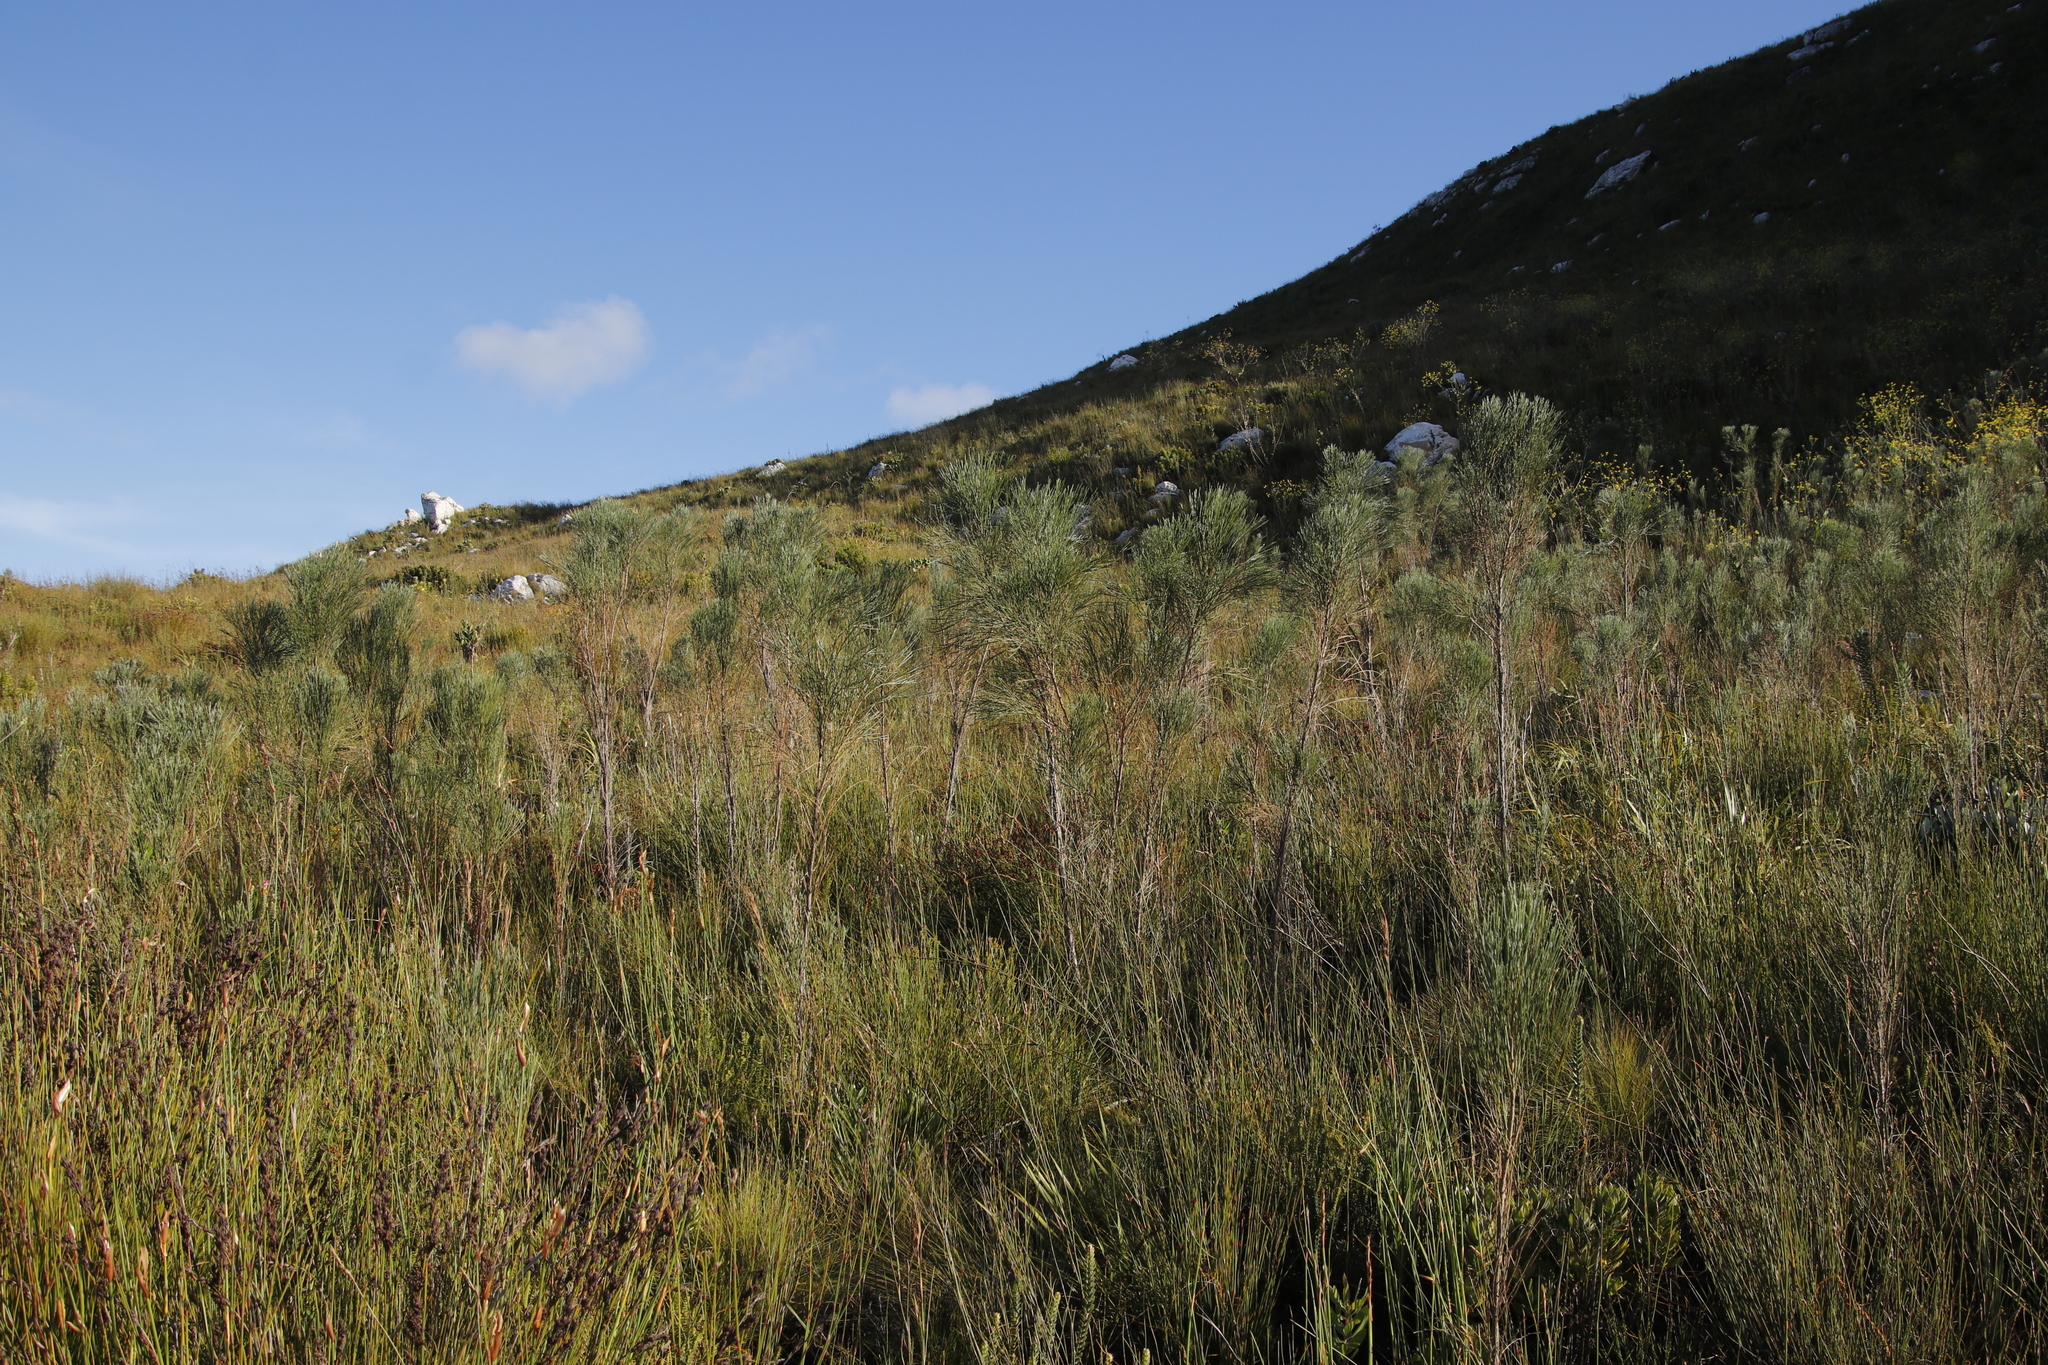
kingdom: Plantae
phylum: Tracheophyta
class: Magnoliopsida
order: Fabales
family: Fabaceae
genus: Psoralea
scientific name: Psoralea pullata
